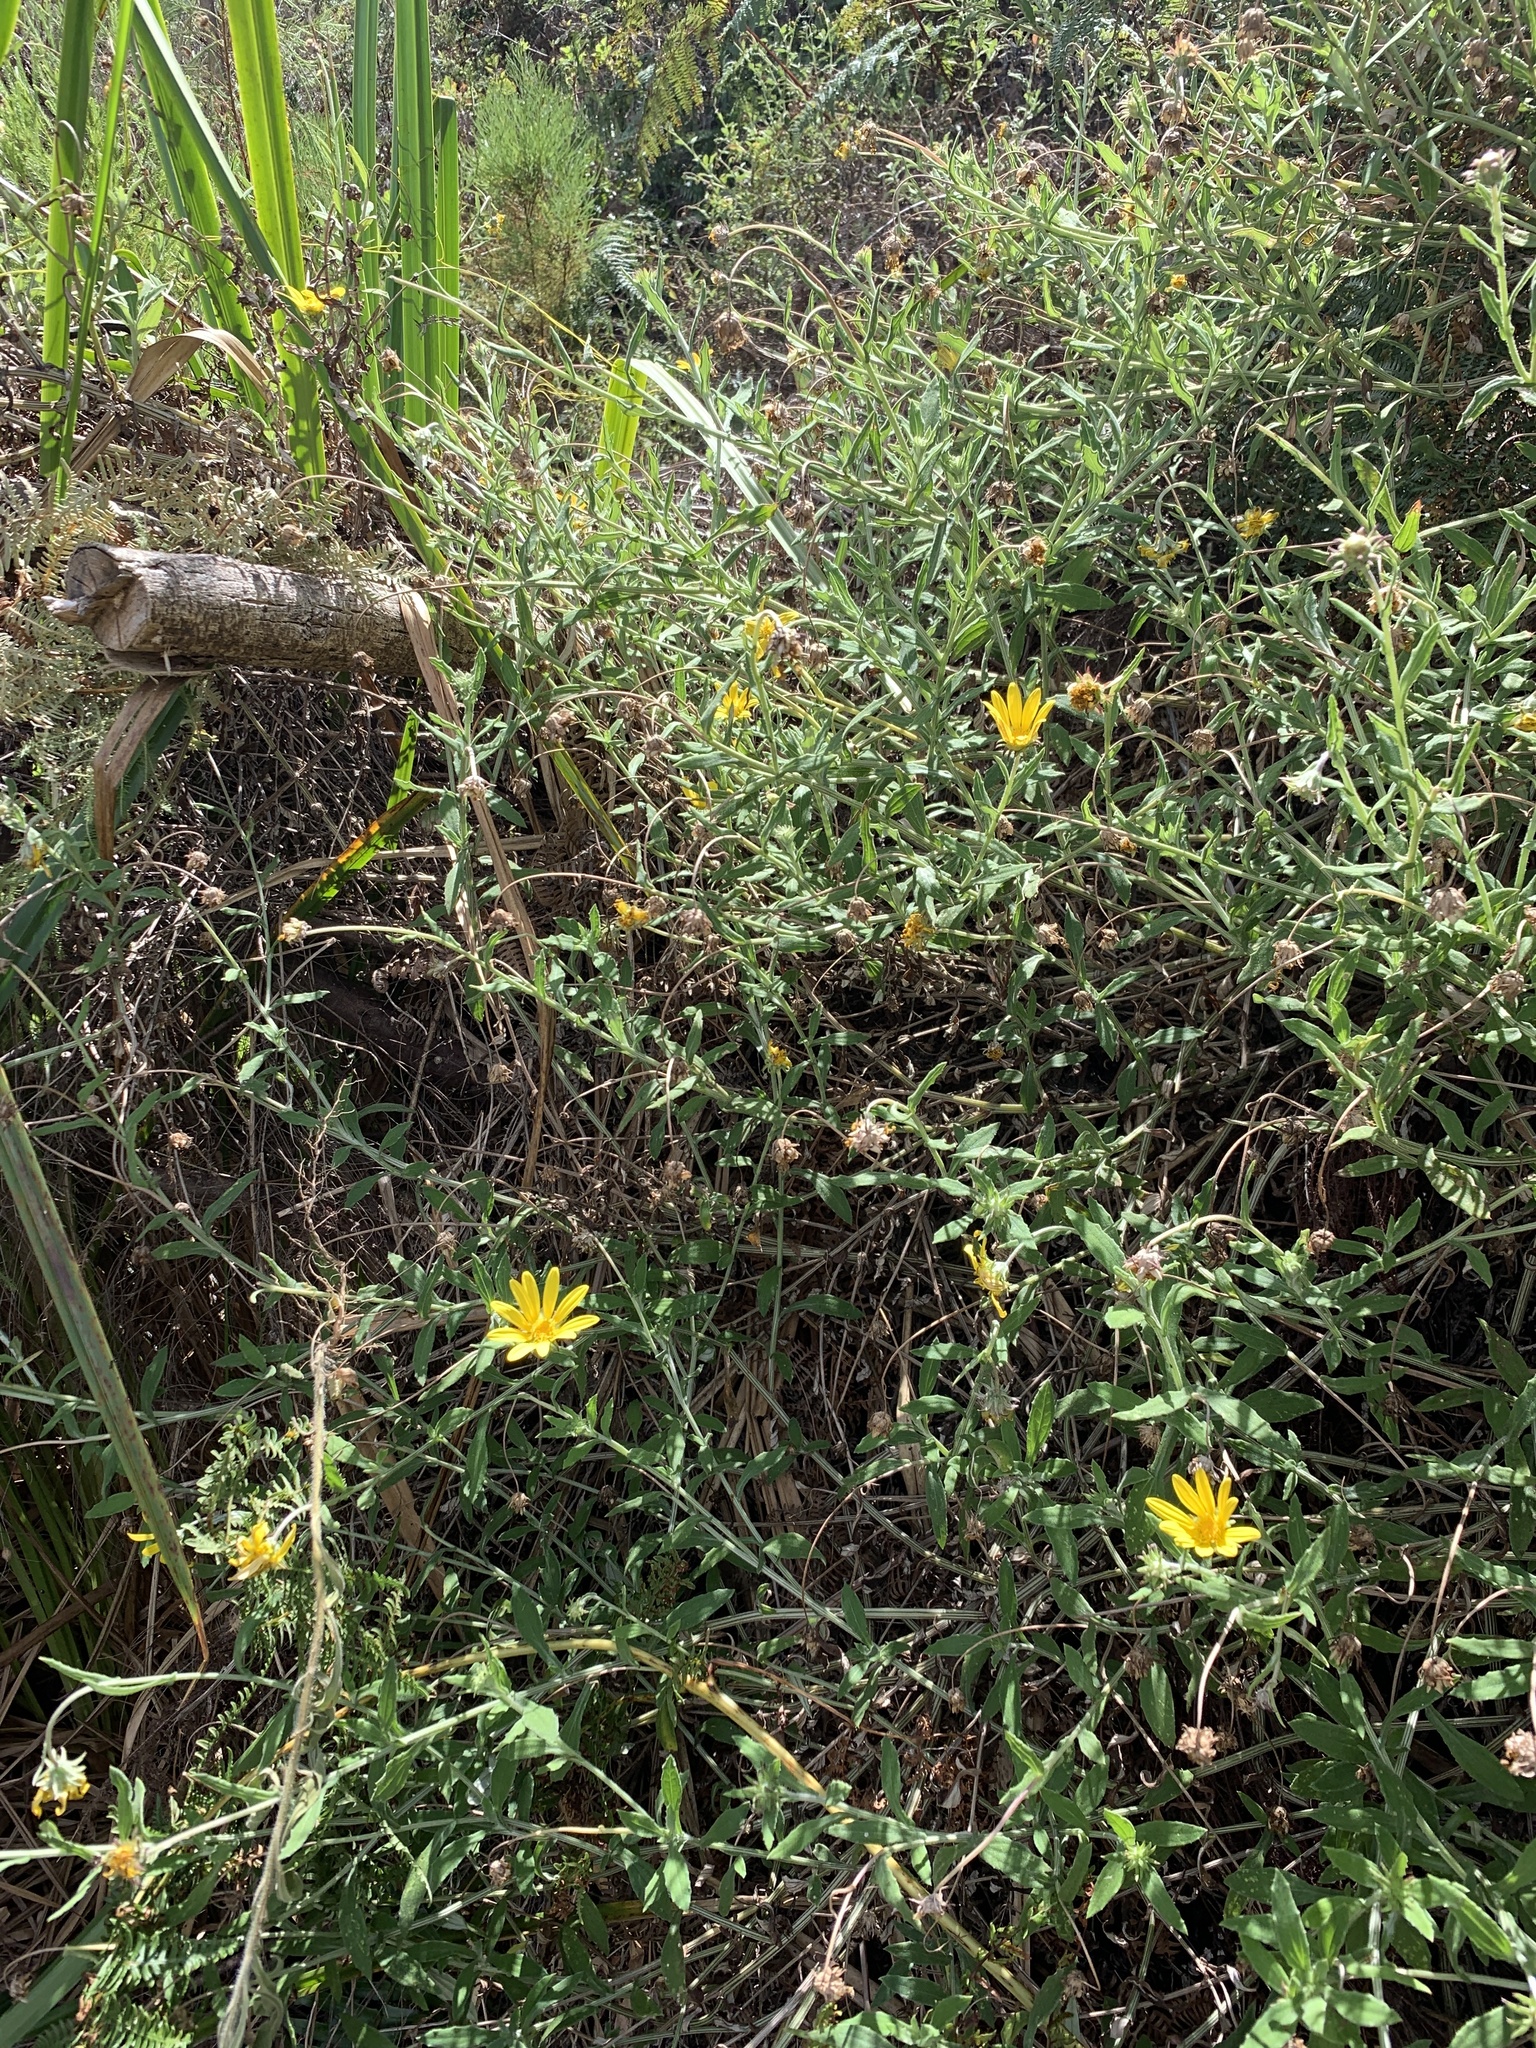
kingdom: Plantae
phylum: Tracheophyta
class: Magnoliopsida
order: Asterales
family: Asteraceae
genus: Arctotis
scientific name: Arctotis scabra
